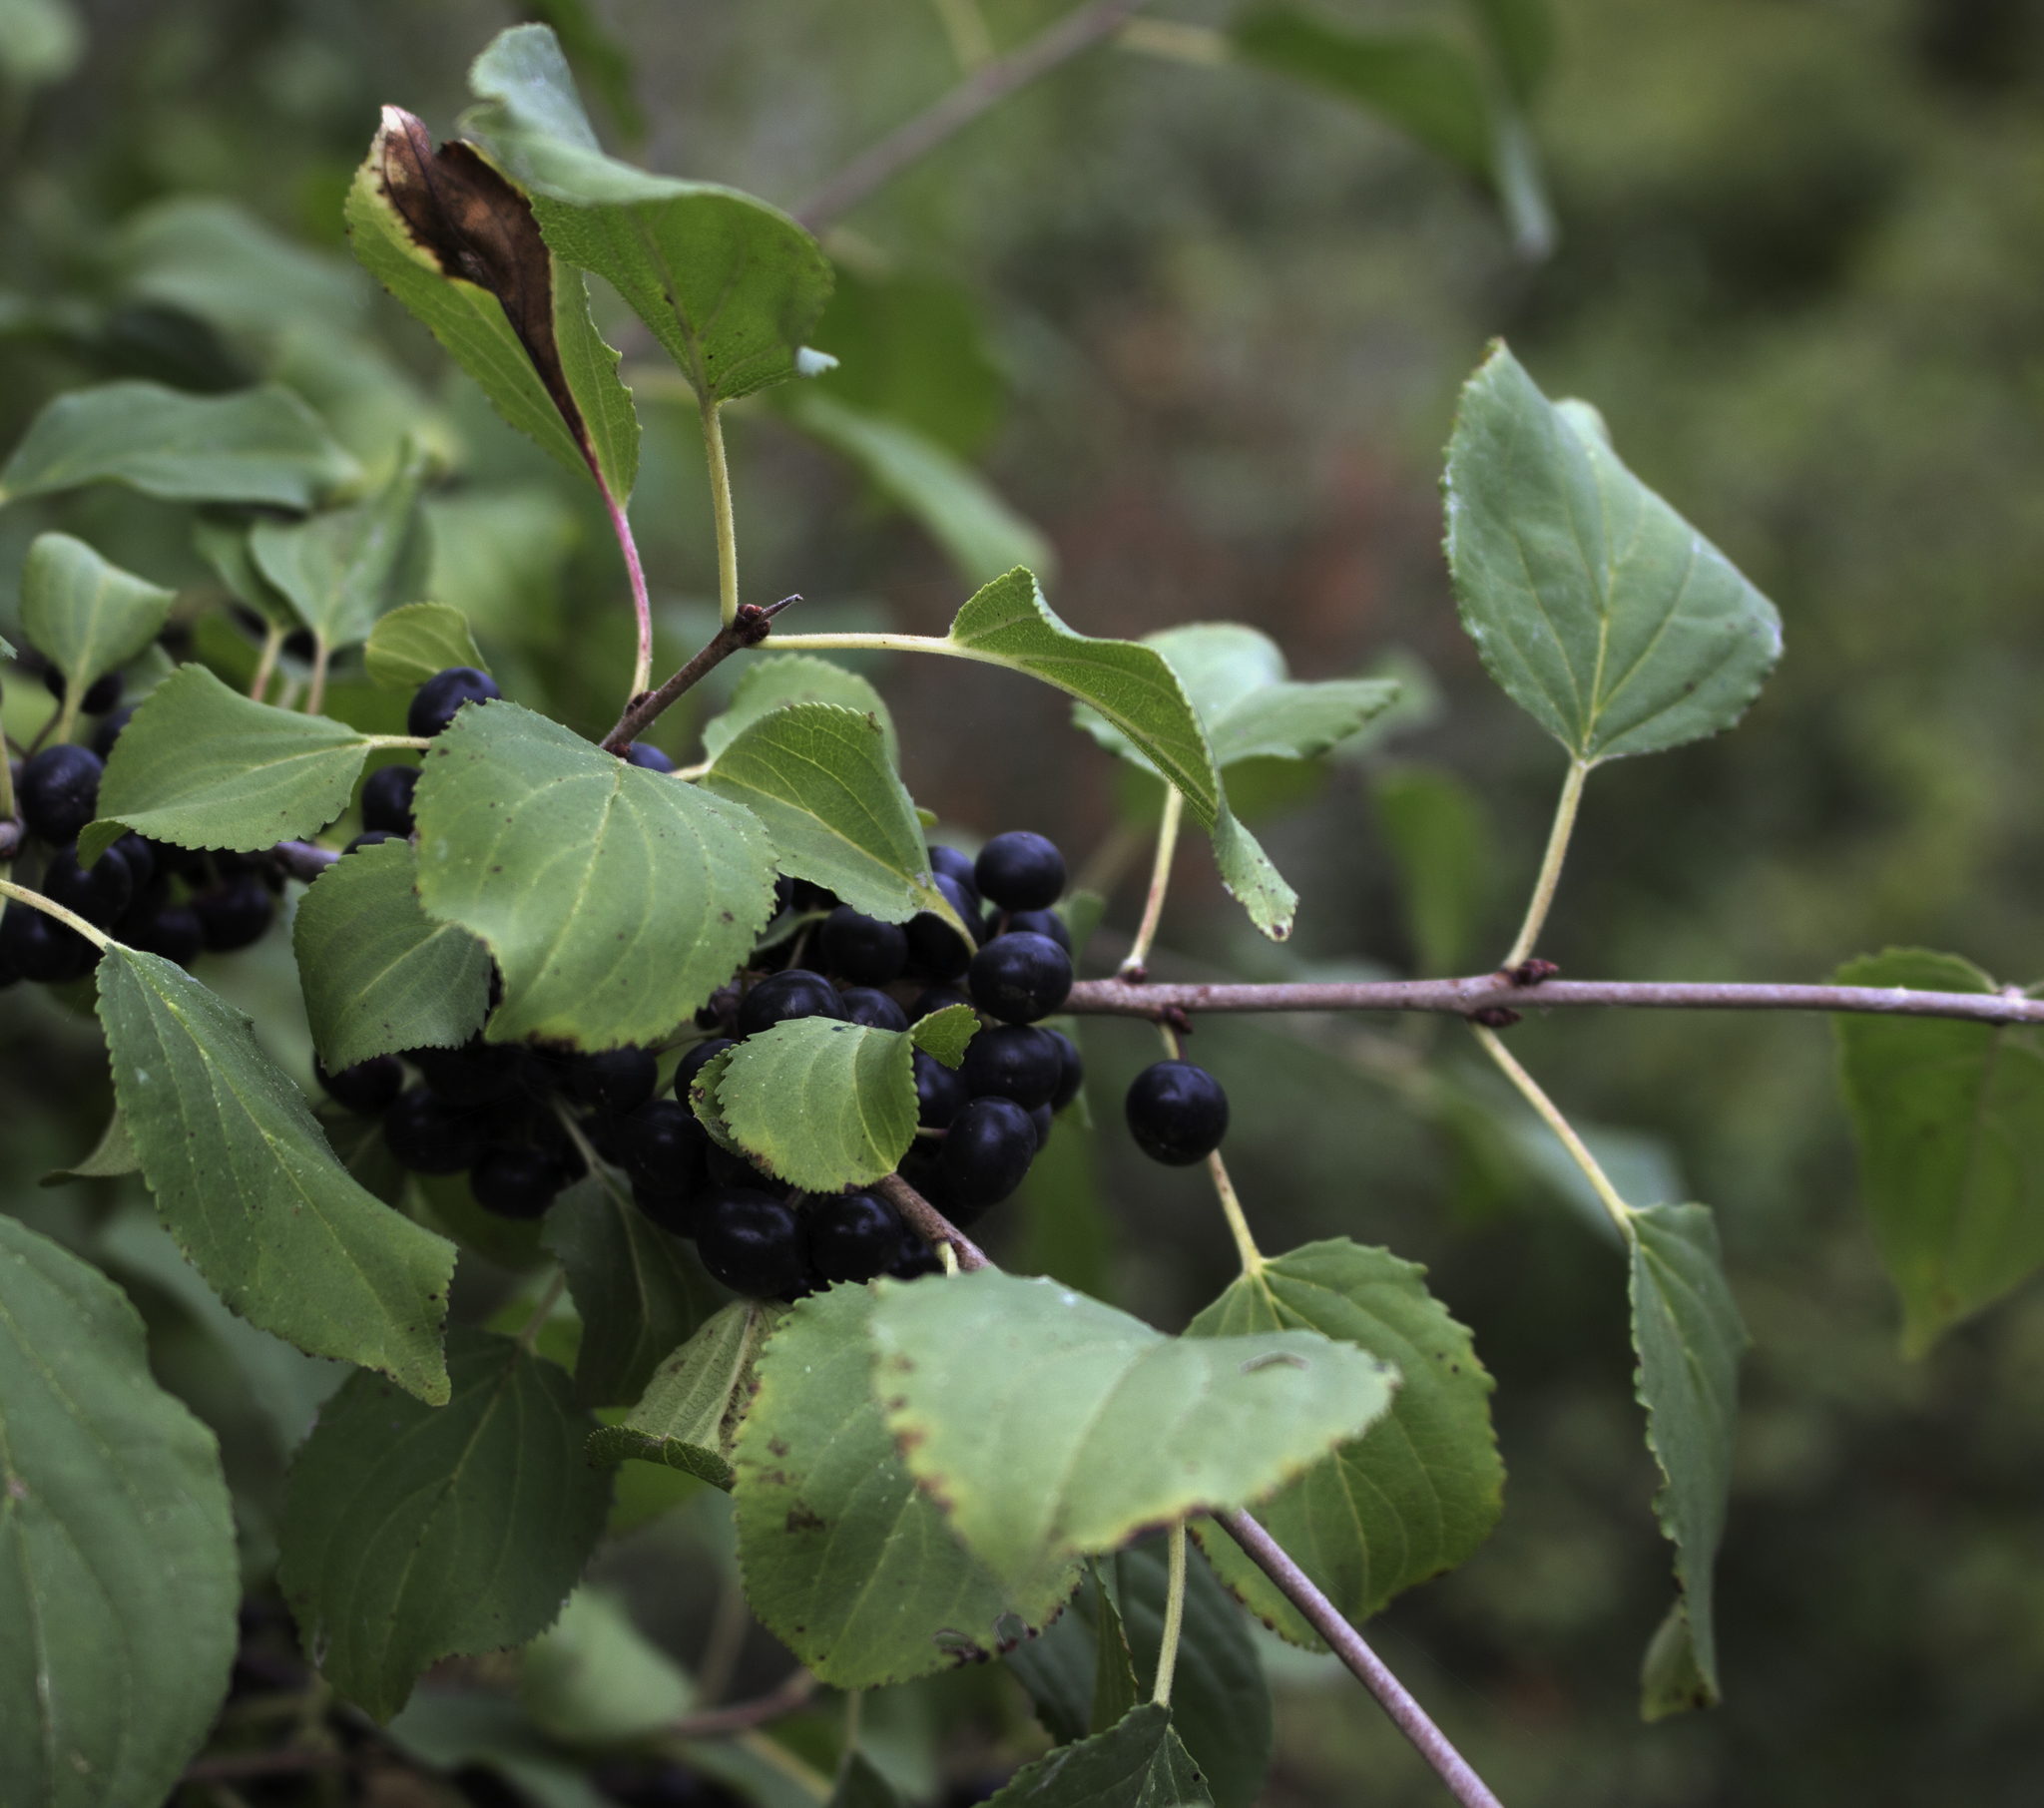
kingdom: Plantae
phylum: Tracheophyta
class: Magnoliopsida
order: Rosales
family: Rhamnaceae
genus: Rhamnus
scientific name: Rhamnus cathartica
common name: Common buckthorn
